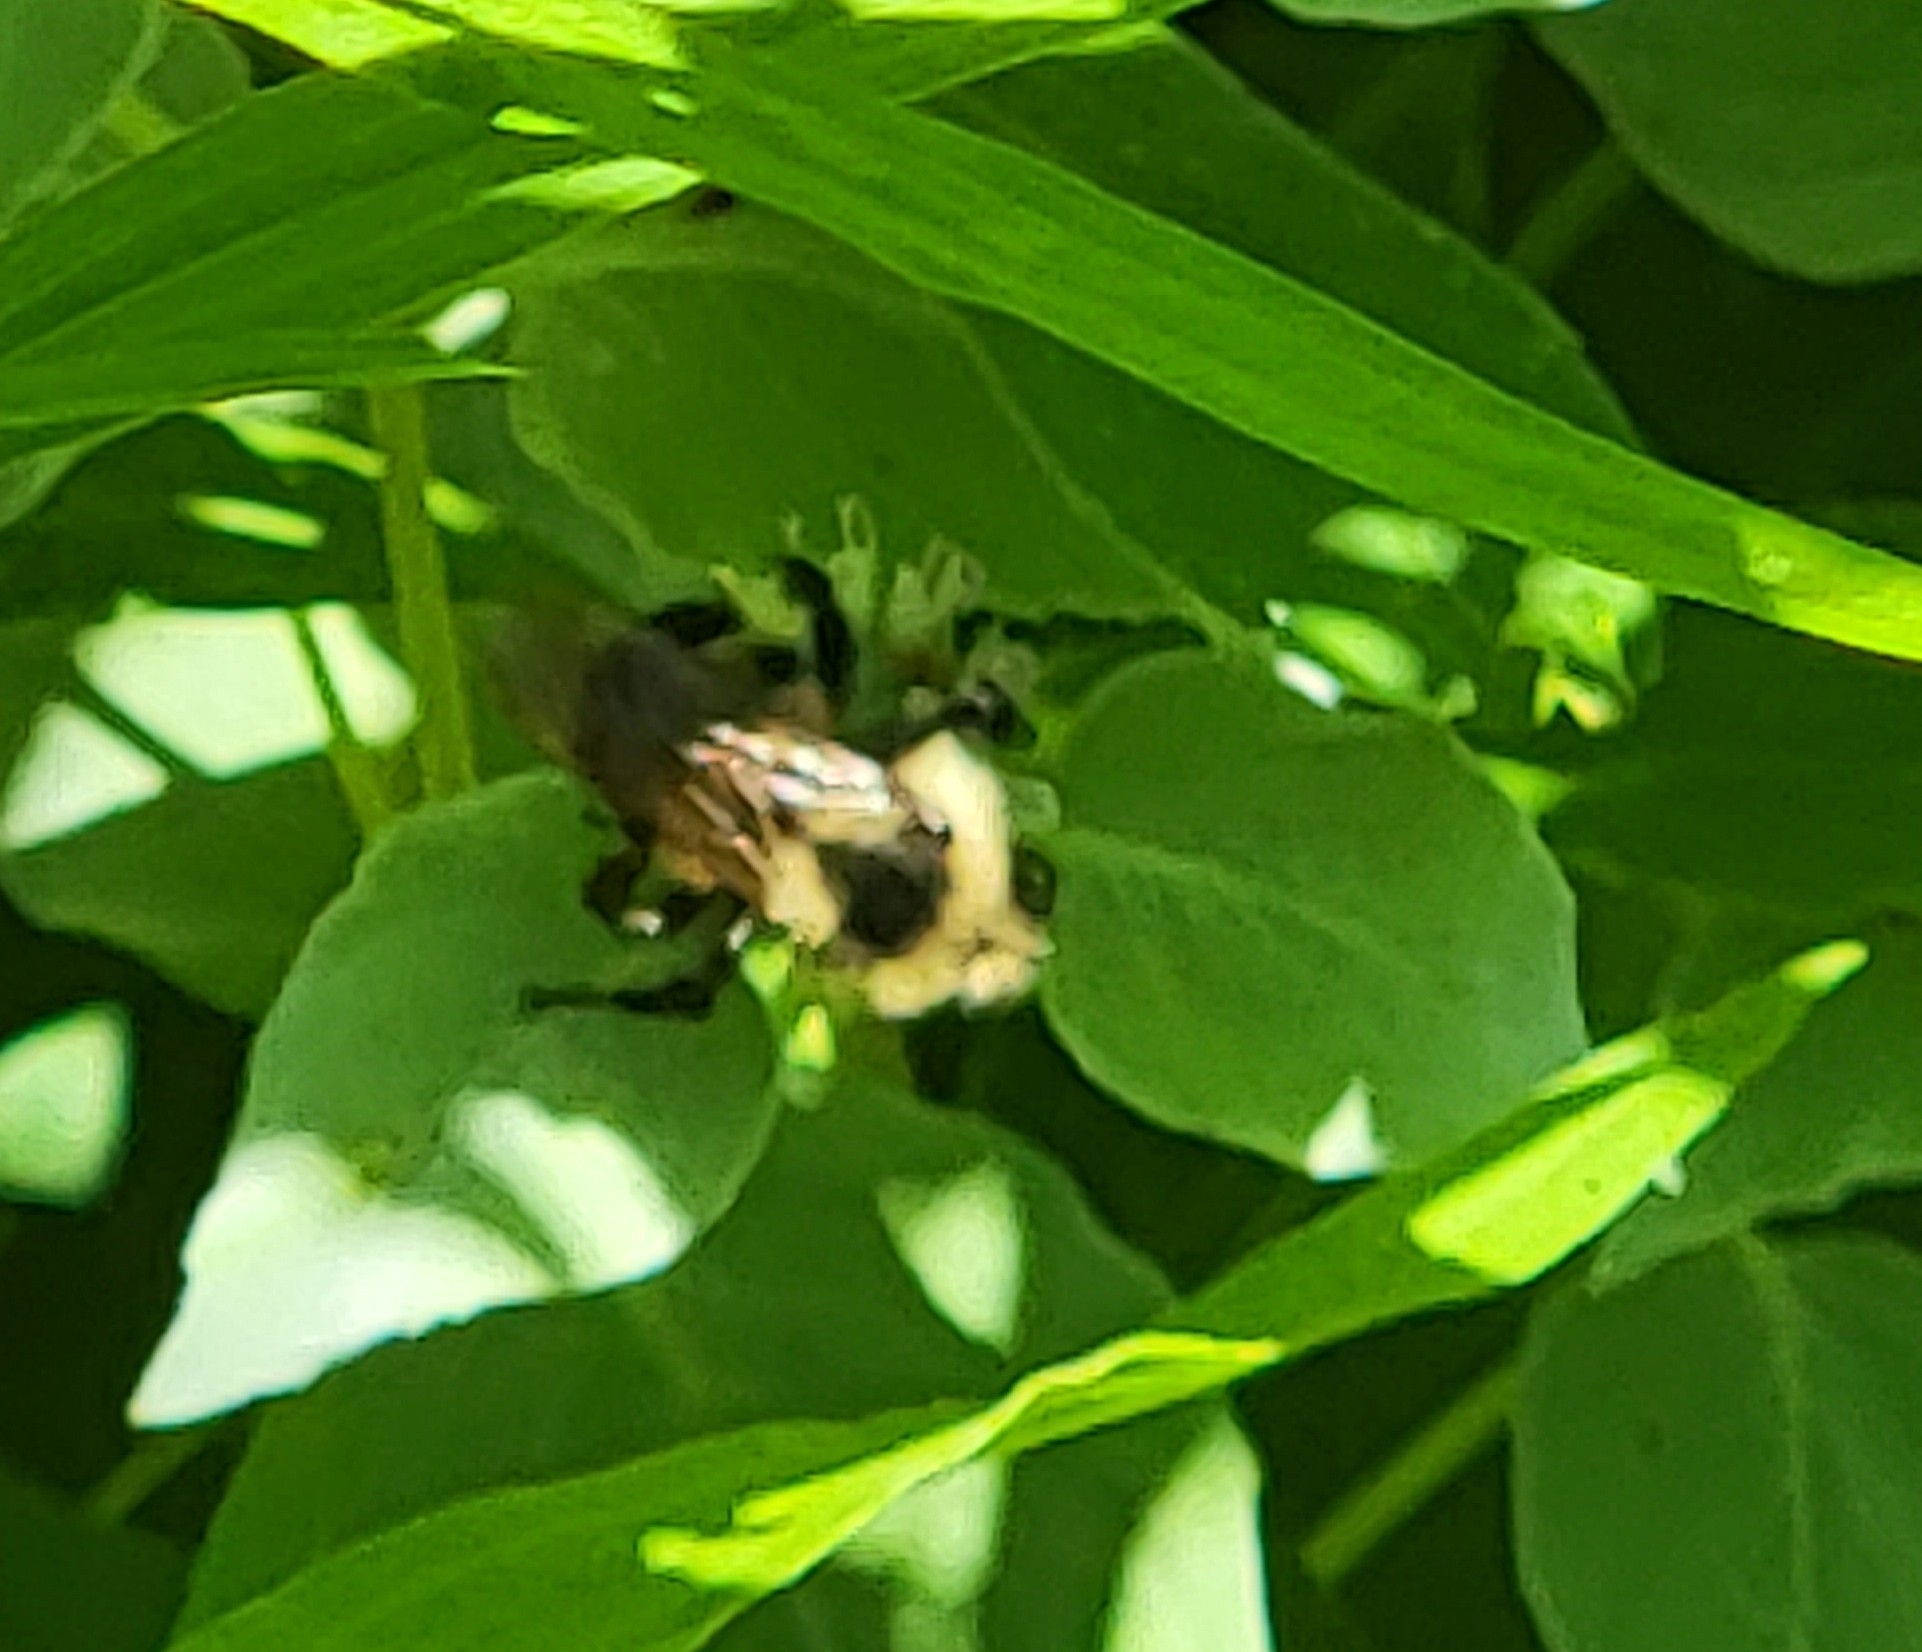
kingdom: Animalia
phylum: Arthropoda
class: Insecta
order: Hymenoptera
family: Apidae
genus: Bombus
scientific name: Bombus citrinus
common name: Lemon cuckoo bumble bee
